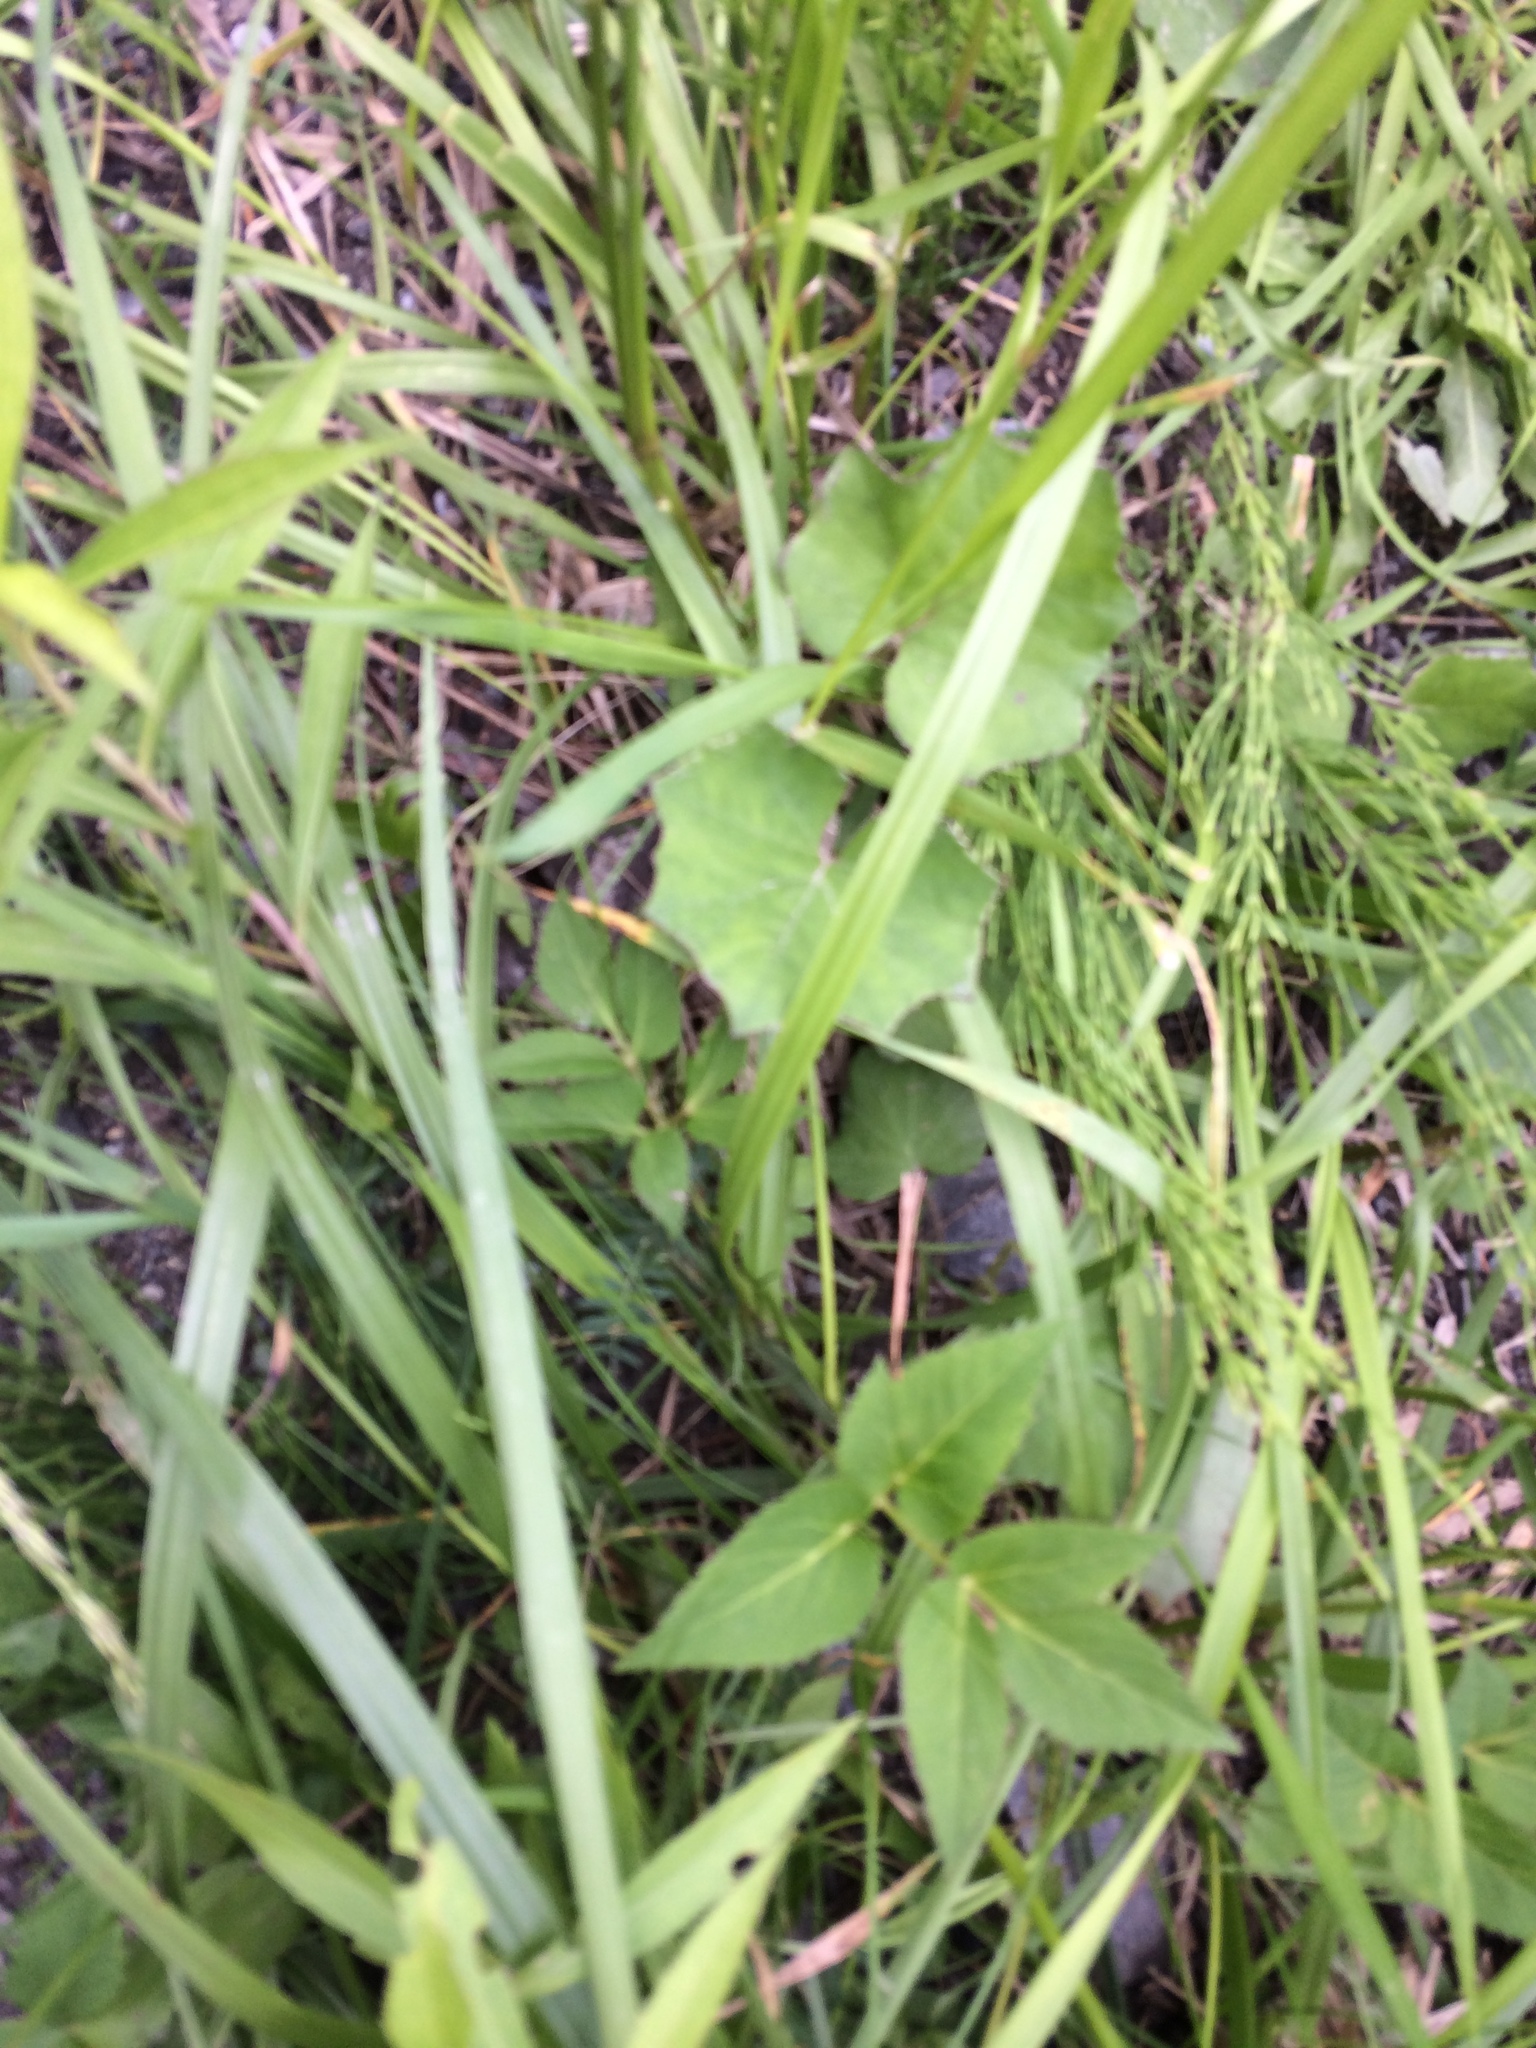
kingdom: Plantae
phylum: Tracheophyta
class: Magnoliopsida
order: Asterales
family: Asteraceae
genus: Tussilago
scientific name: Tussilago farfara
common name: Coltsfoot
